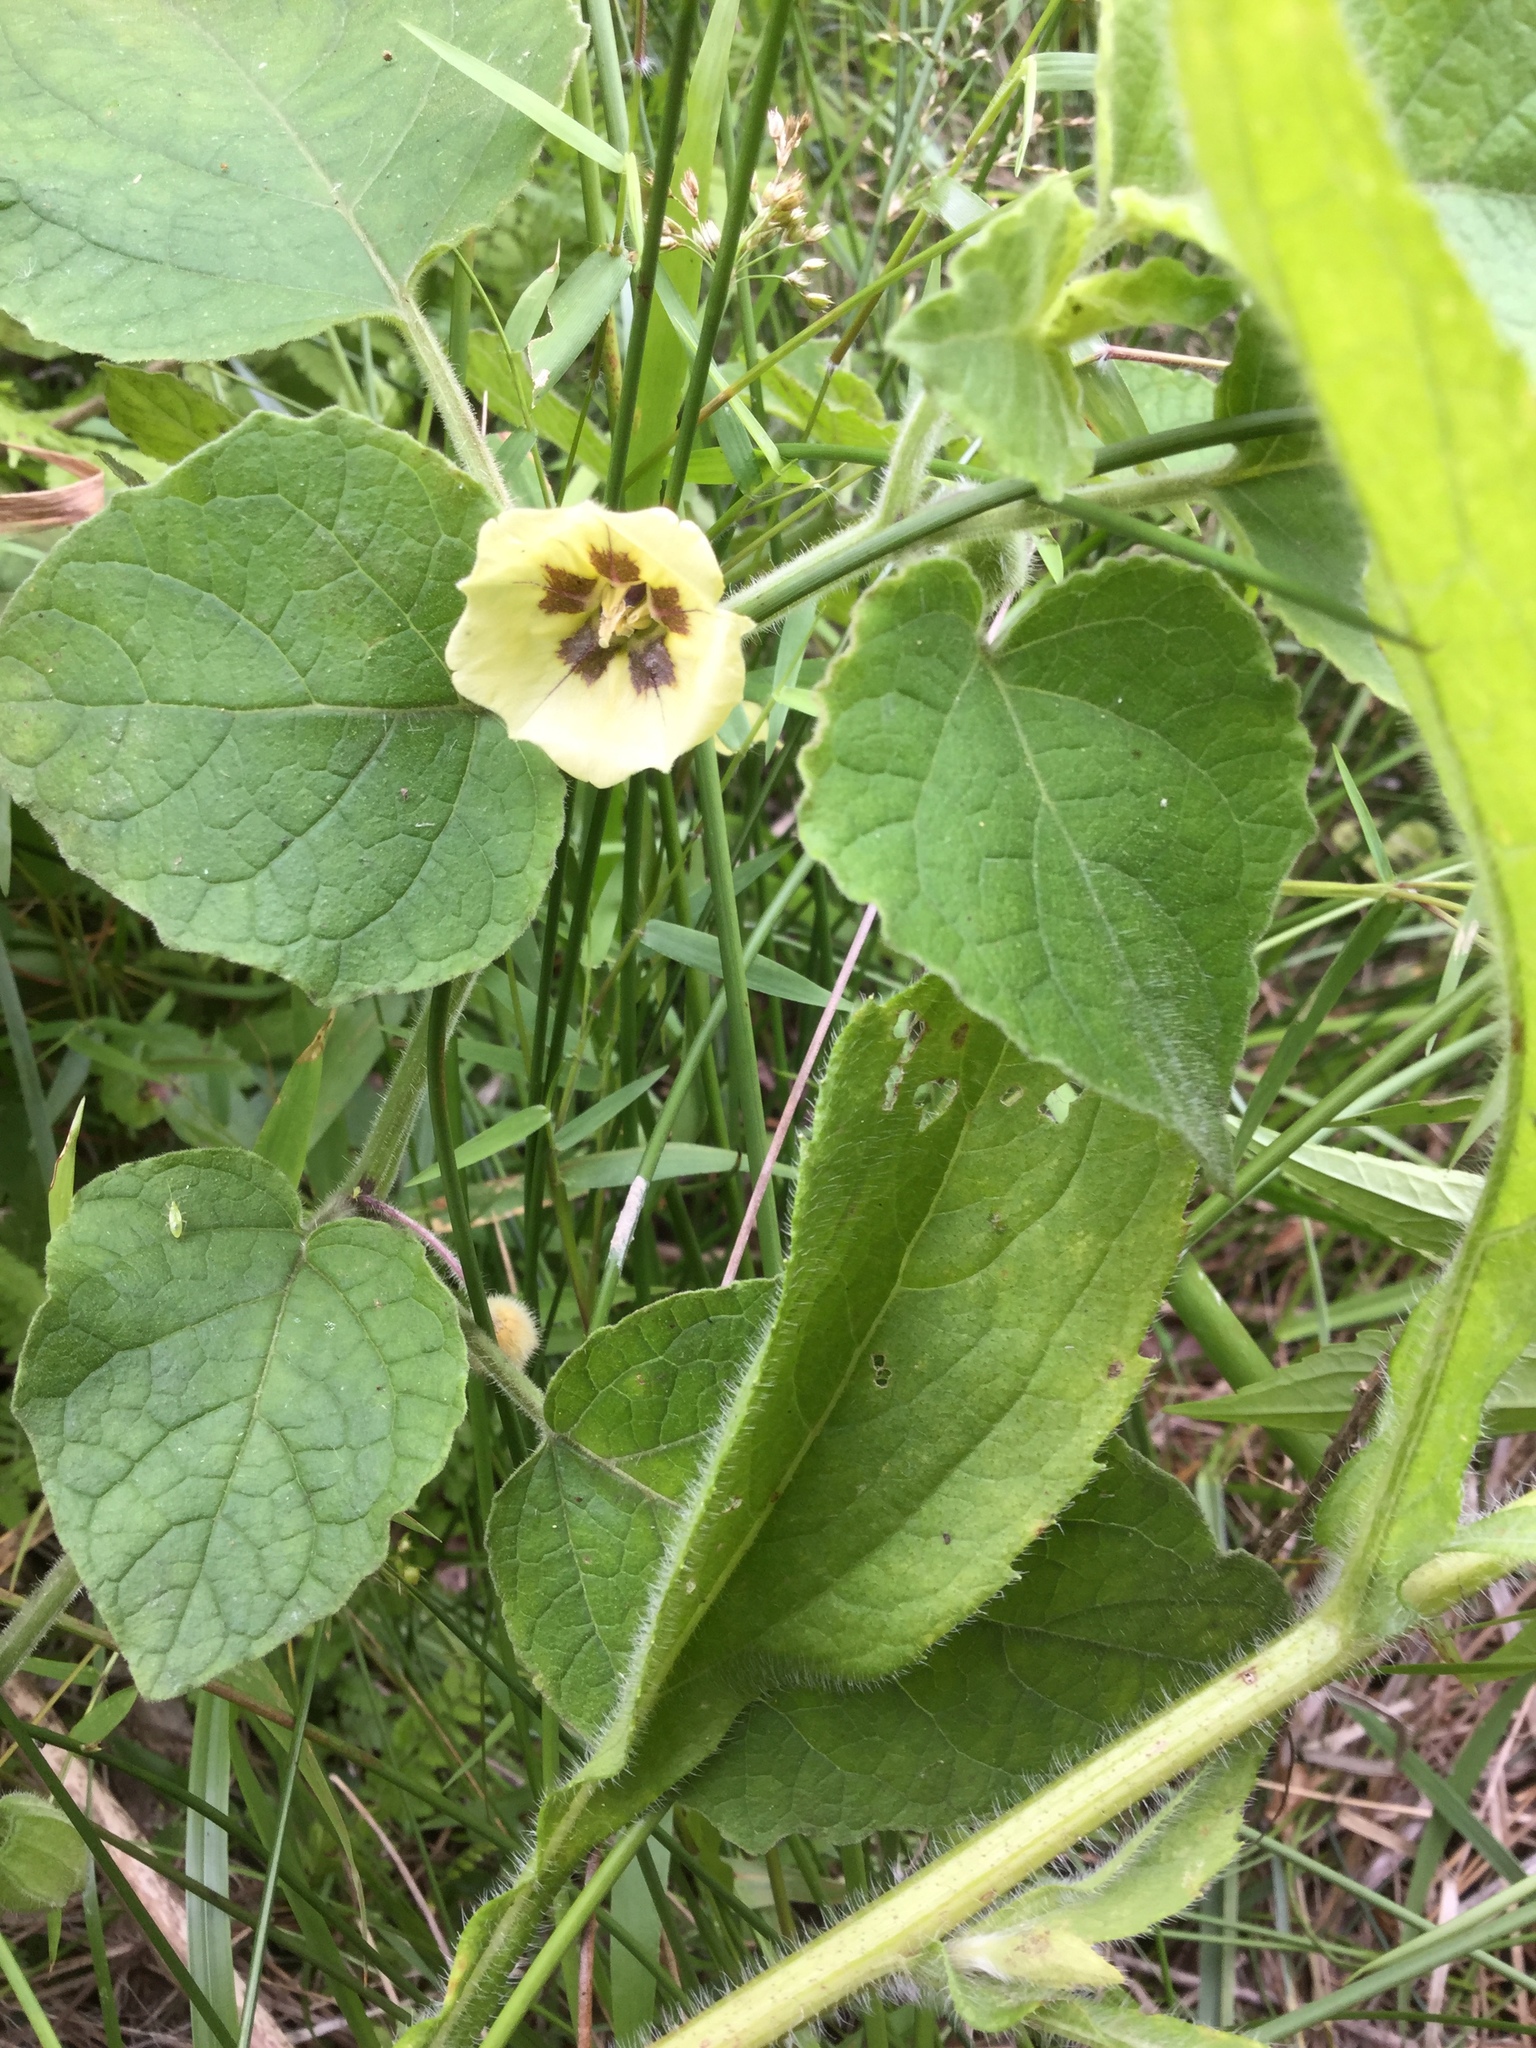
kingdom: Plantae
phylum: Tracheophyta
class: Magnoliopsida
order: Solanales
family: Solanaceae
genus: Physalis
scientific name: Physalis heterophylla
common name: Clammy ground-cherry
